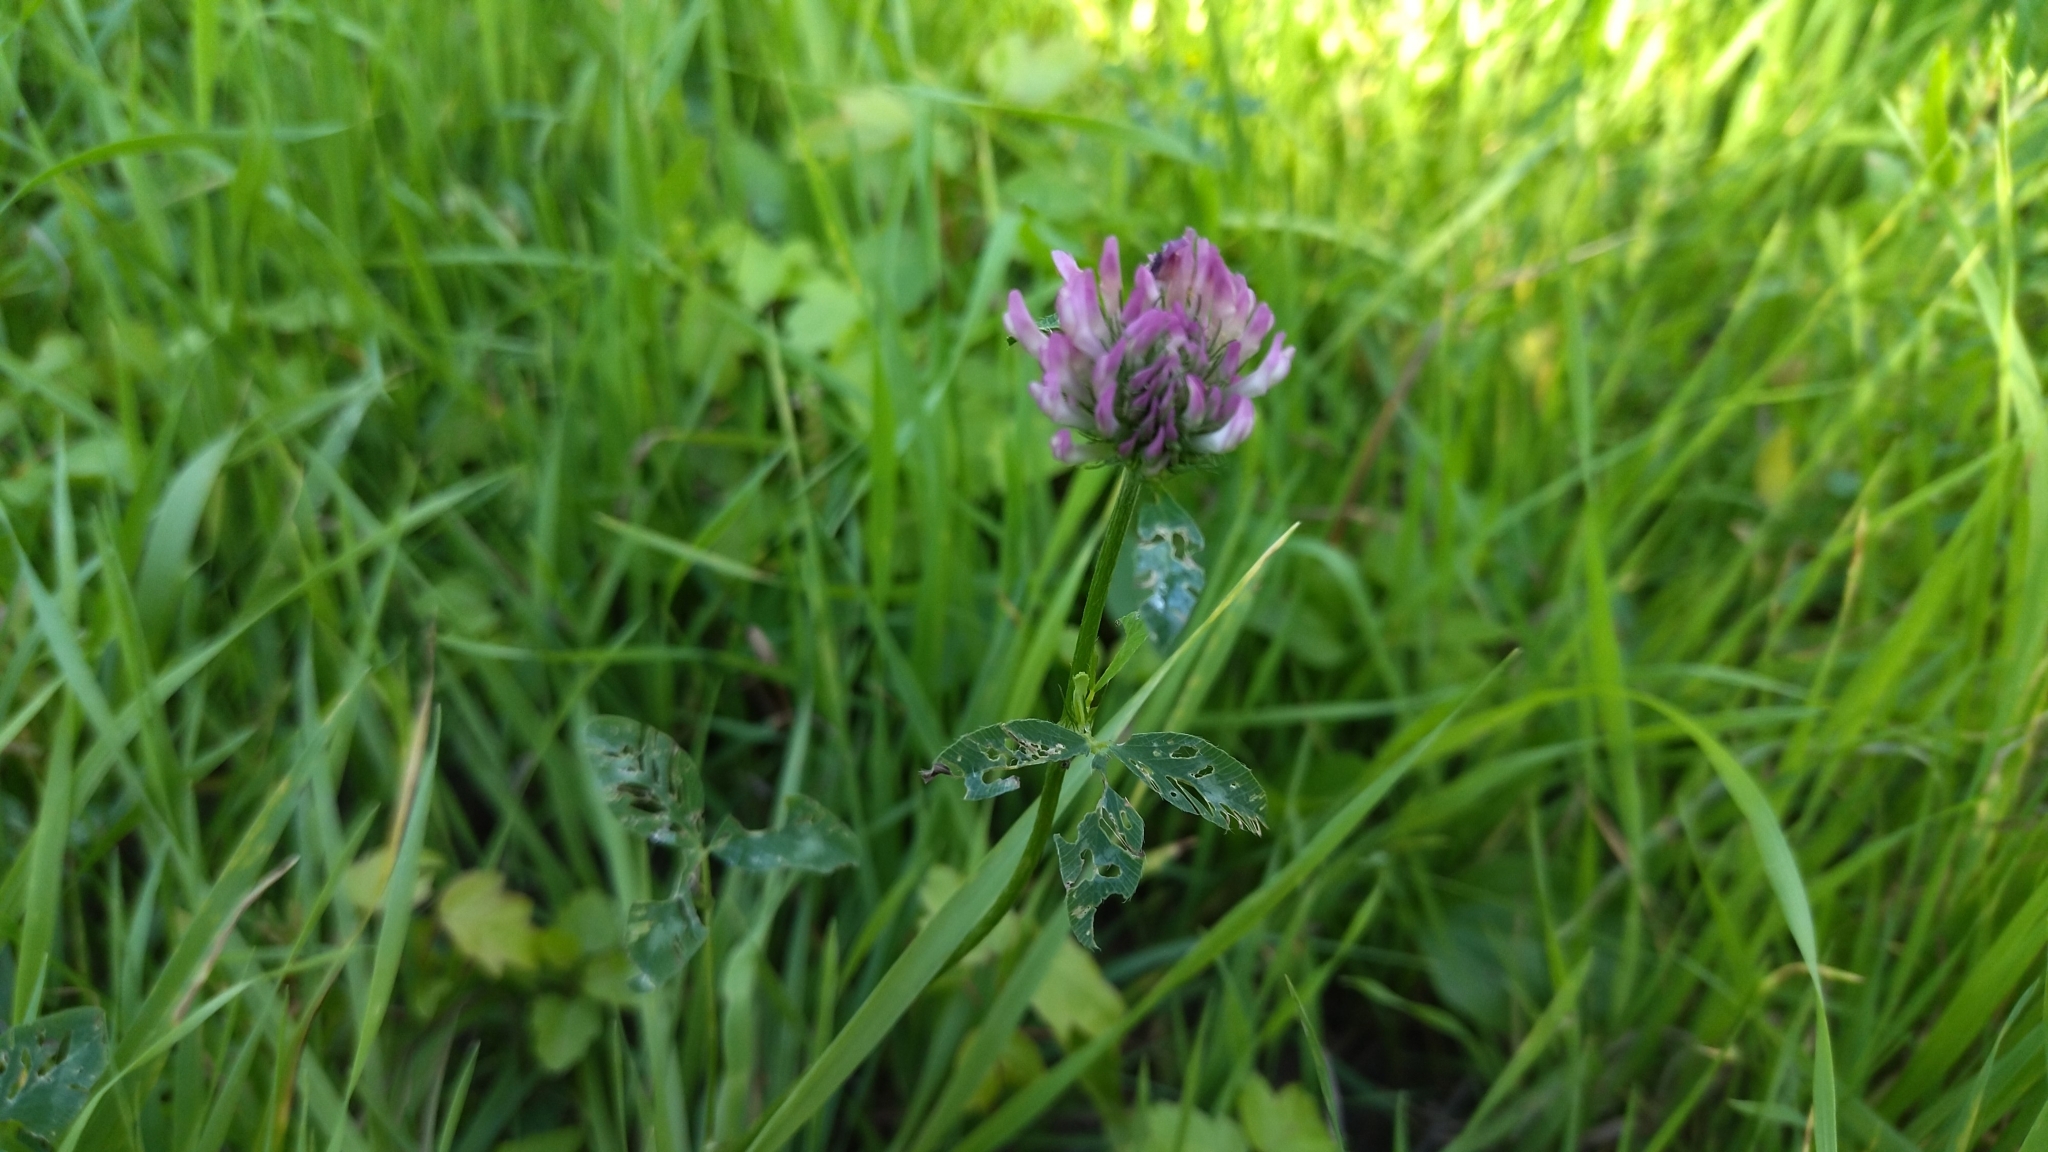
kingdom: Plantae
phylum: Tracheophyta
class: Magnoliopsida
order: Fabales
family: Fabaceae
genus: Trifolium
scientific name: Trifolium pratense
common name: Red clover
